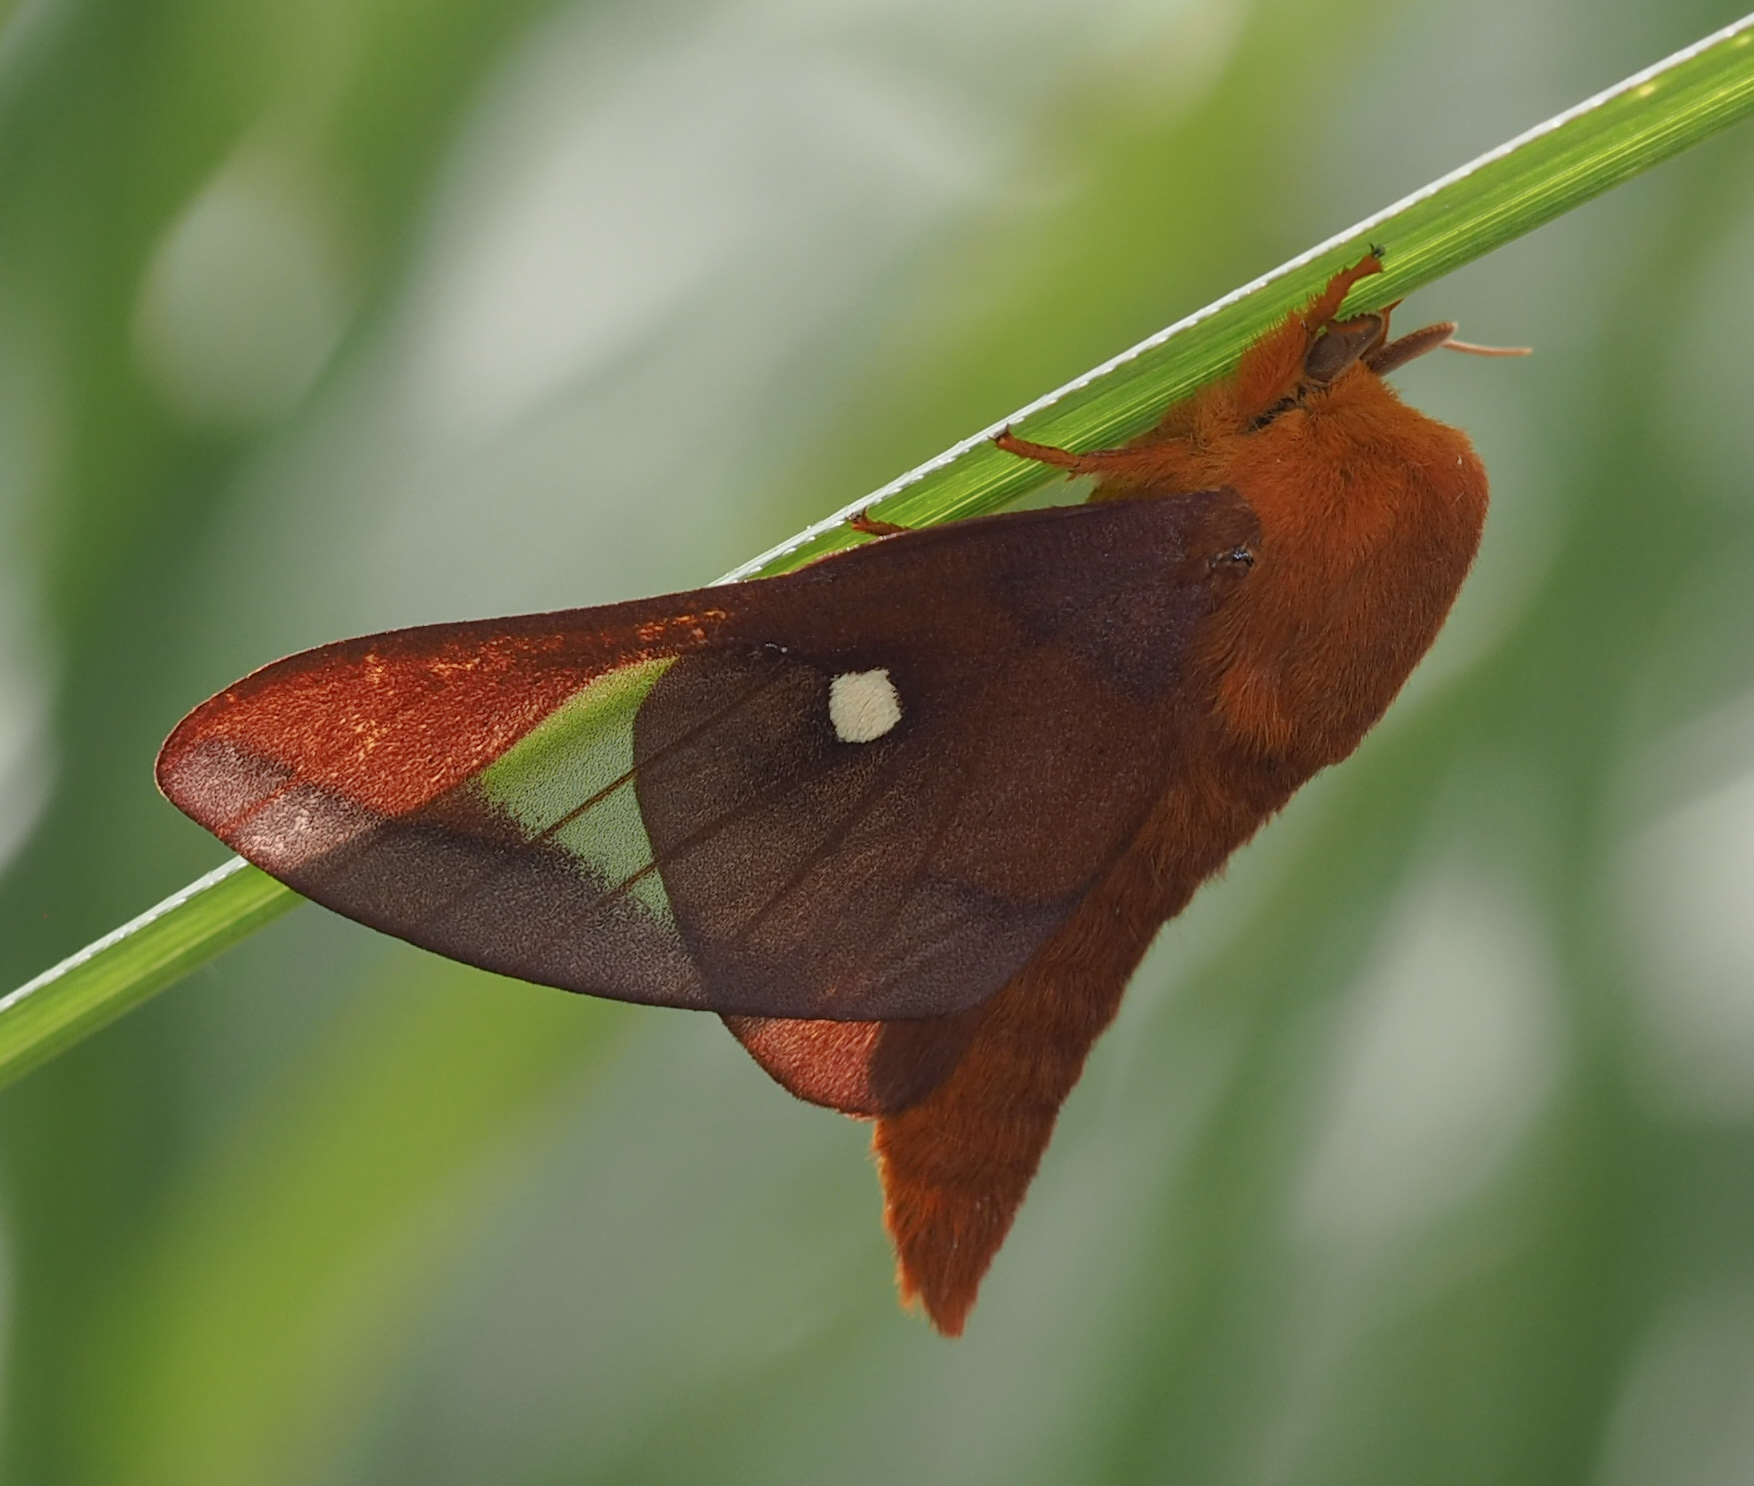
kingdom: Animalia
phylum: Arthropoda
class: Insecta
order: Lepidoptera
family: Saturniidae
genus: Anisota
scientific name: Anisota virginiensis
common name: Pink striped oakworm moth
